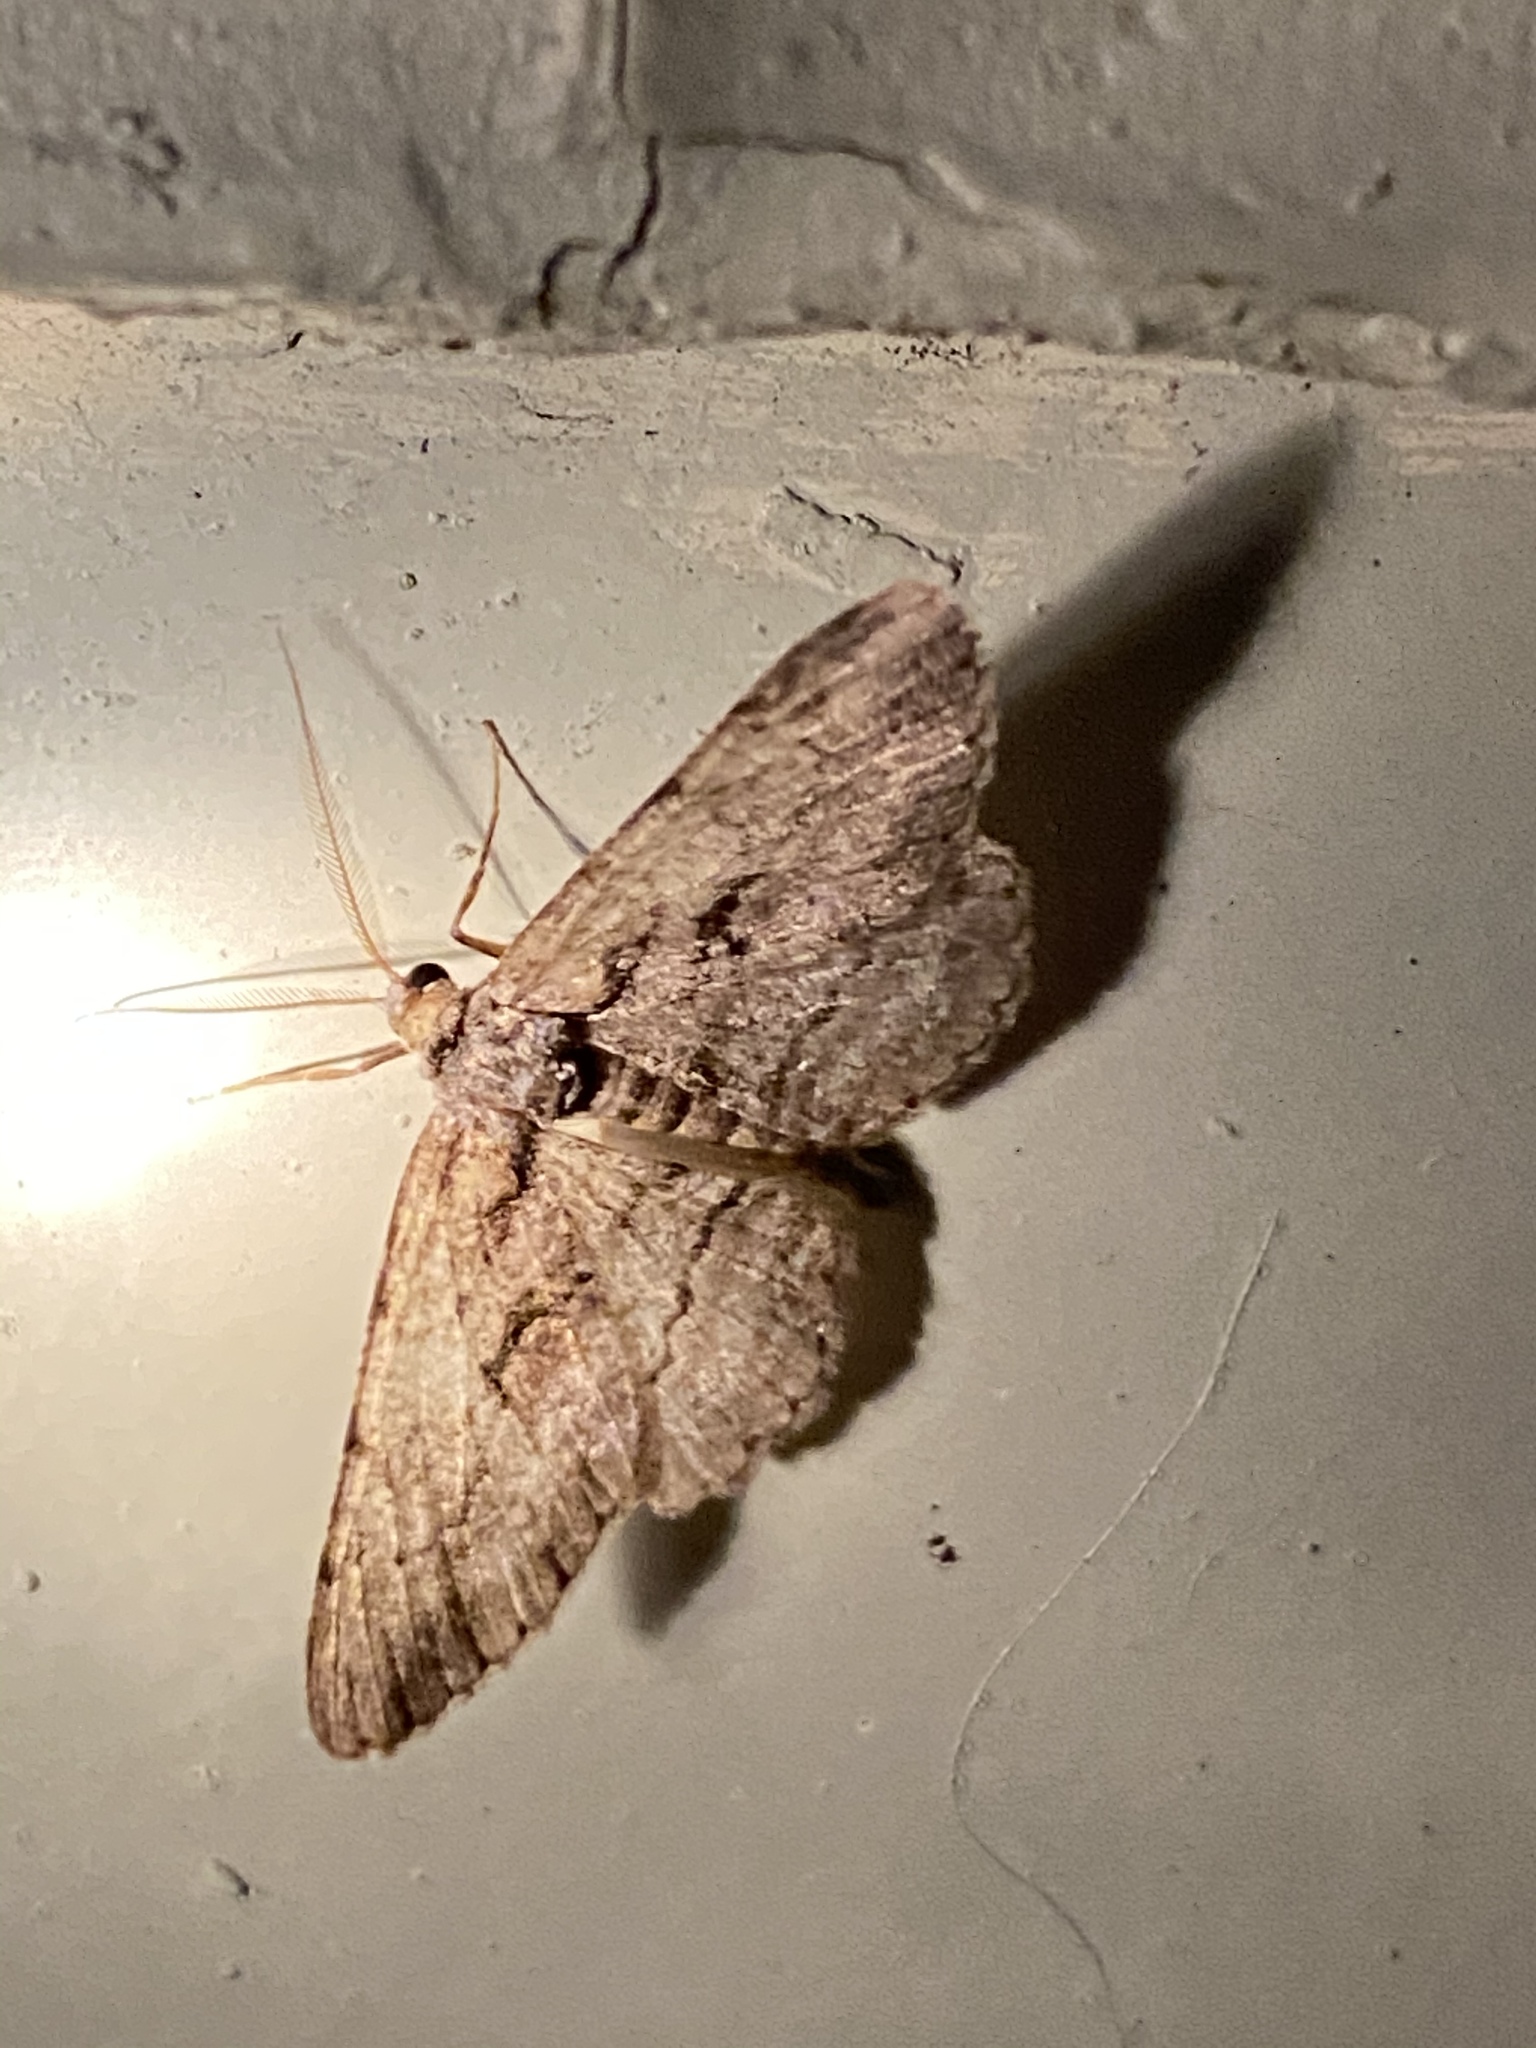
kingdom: Animalia
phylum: Arthropoda
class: Insecta
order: Lepidoptera
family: Geometridae
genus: Anavitrinella
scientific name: Anavitrinella pampinaria
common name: Common gray
